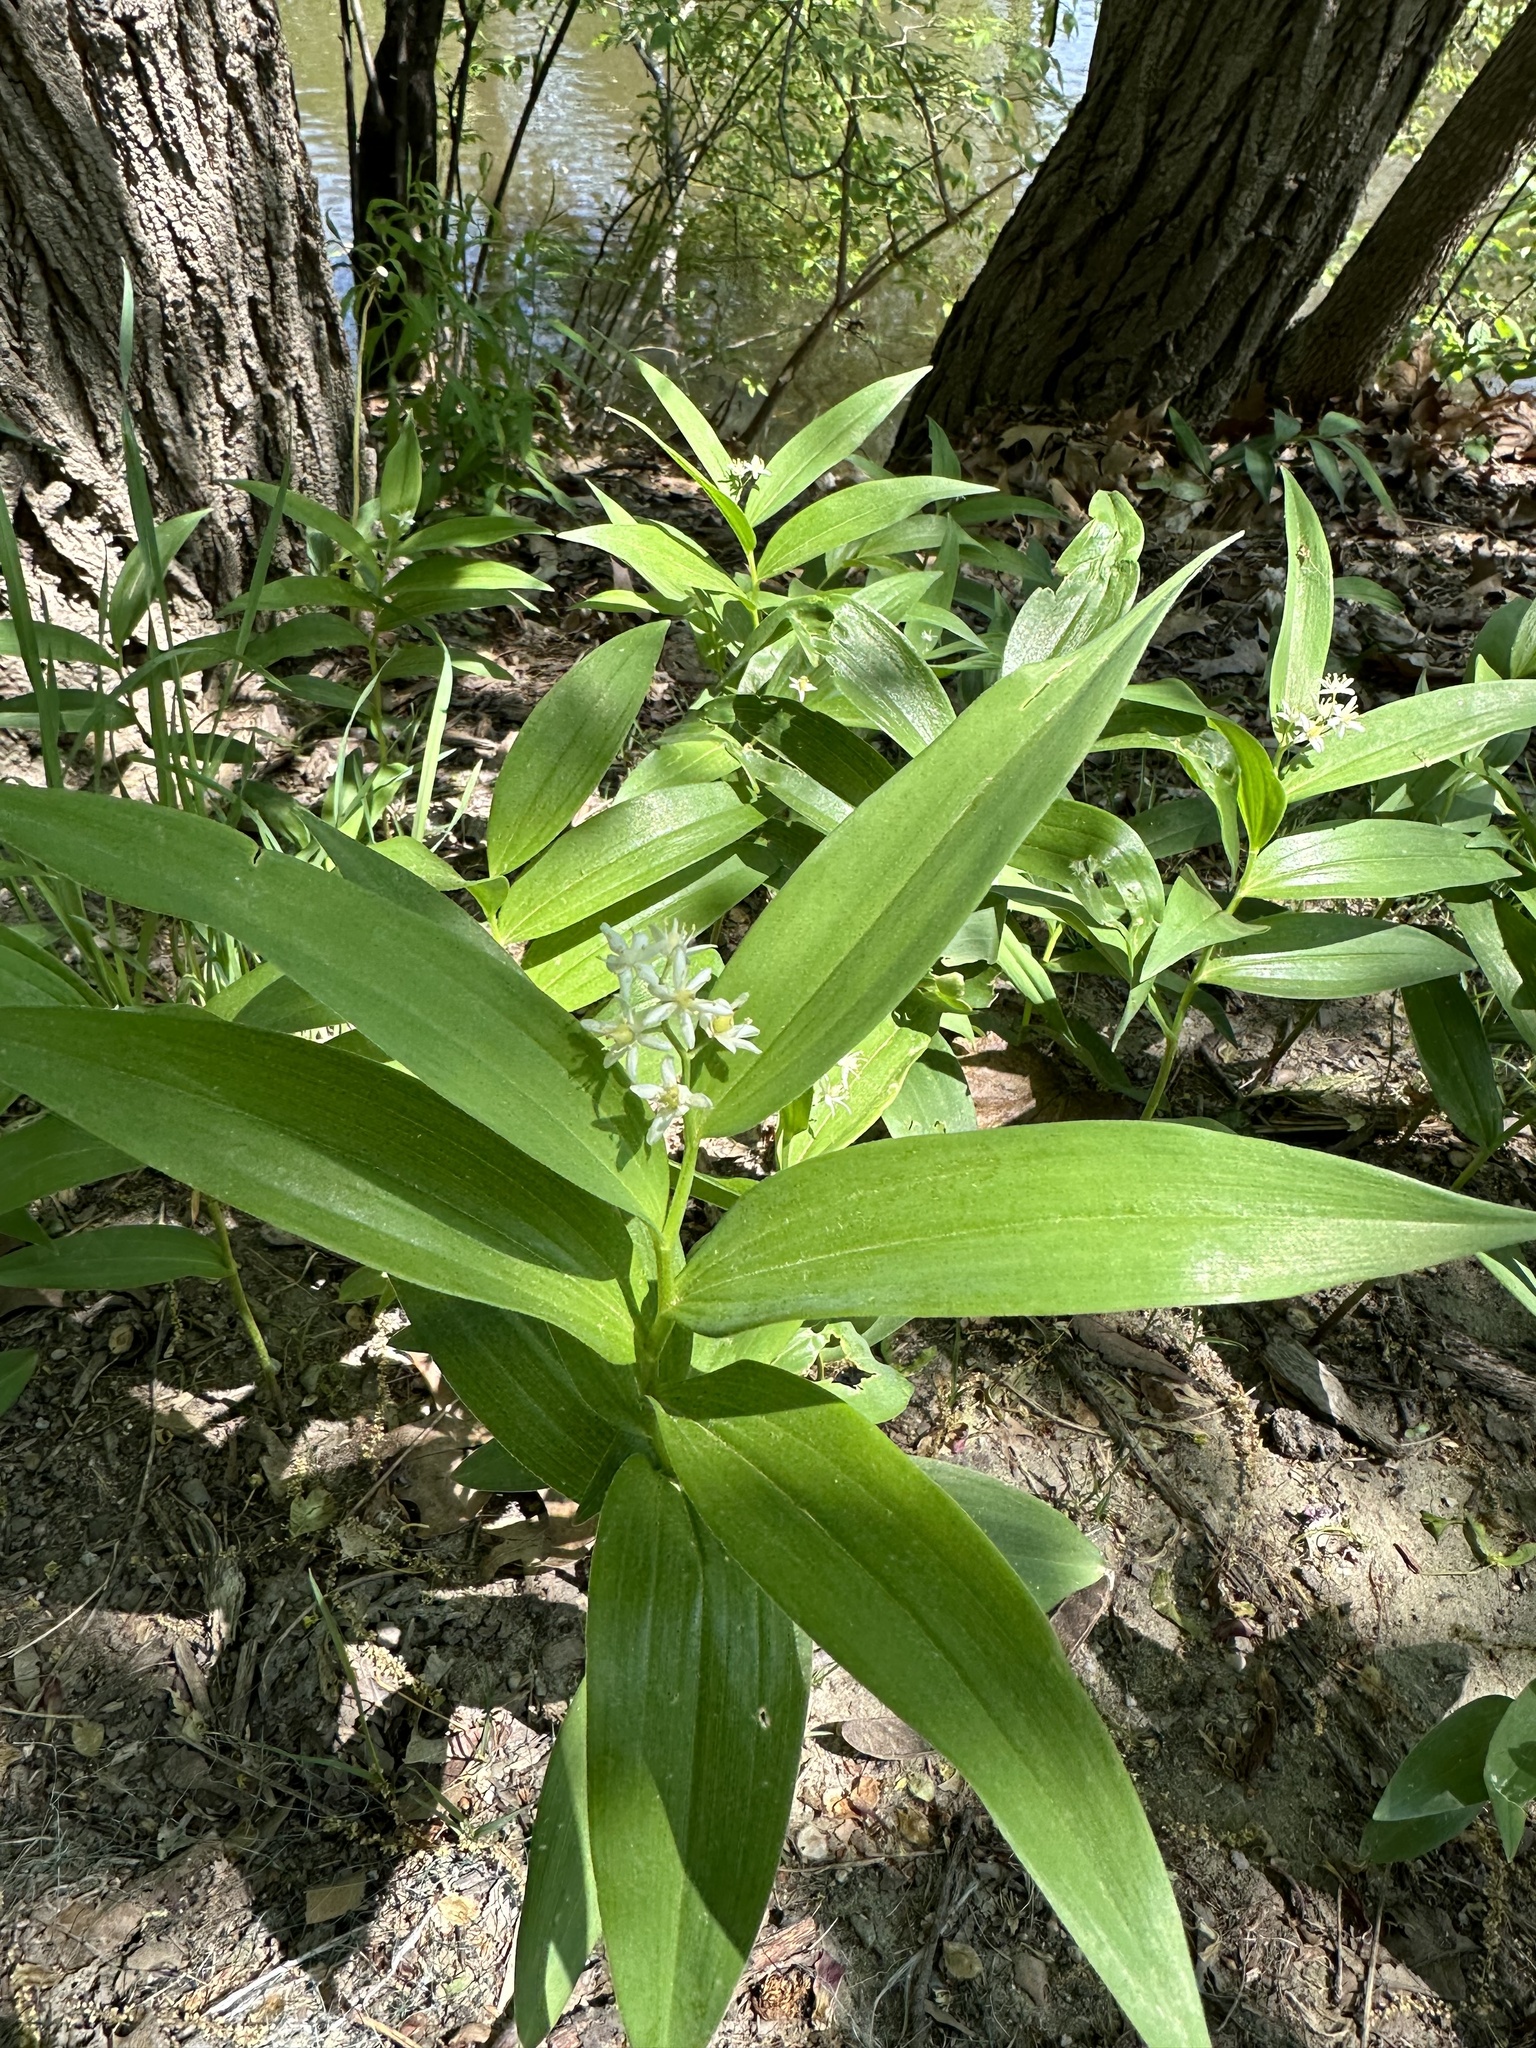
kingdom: Plantae
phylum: Tracheophyta
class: Liliopsida
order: Asparagales
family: Asparagaceae
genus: Maianthemum
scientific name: Maianthemum stellatum
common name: Little false solomon's seal
